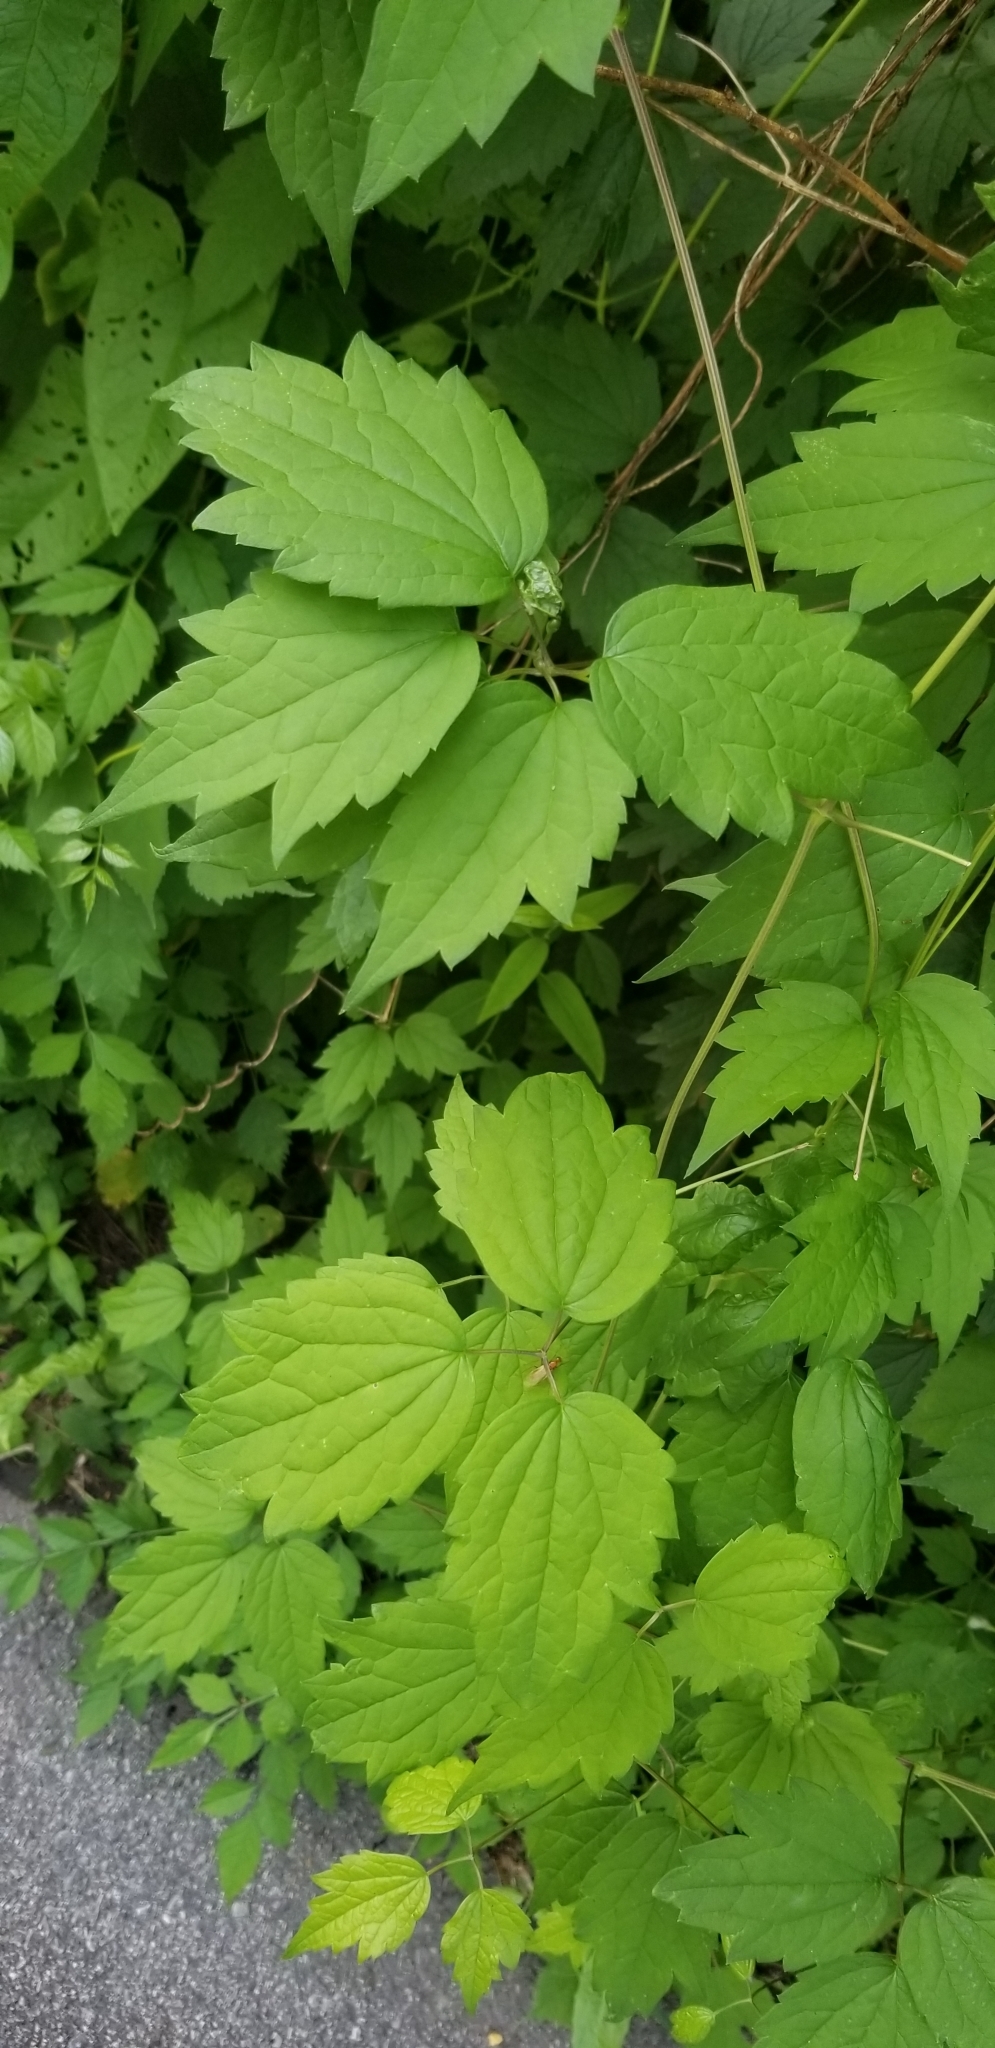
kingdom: Plantae
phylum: Tracheophyta
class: Magnoliopsida
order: Ranunculales
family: Ranunculaceae
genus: Clematis
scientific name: Clematis virginiana
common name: Virgin's-bower
